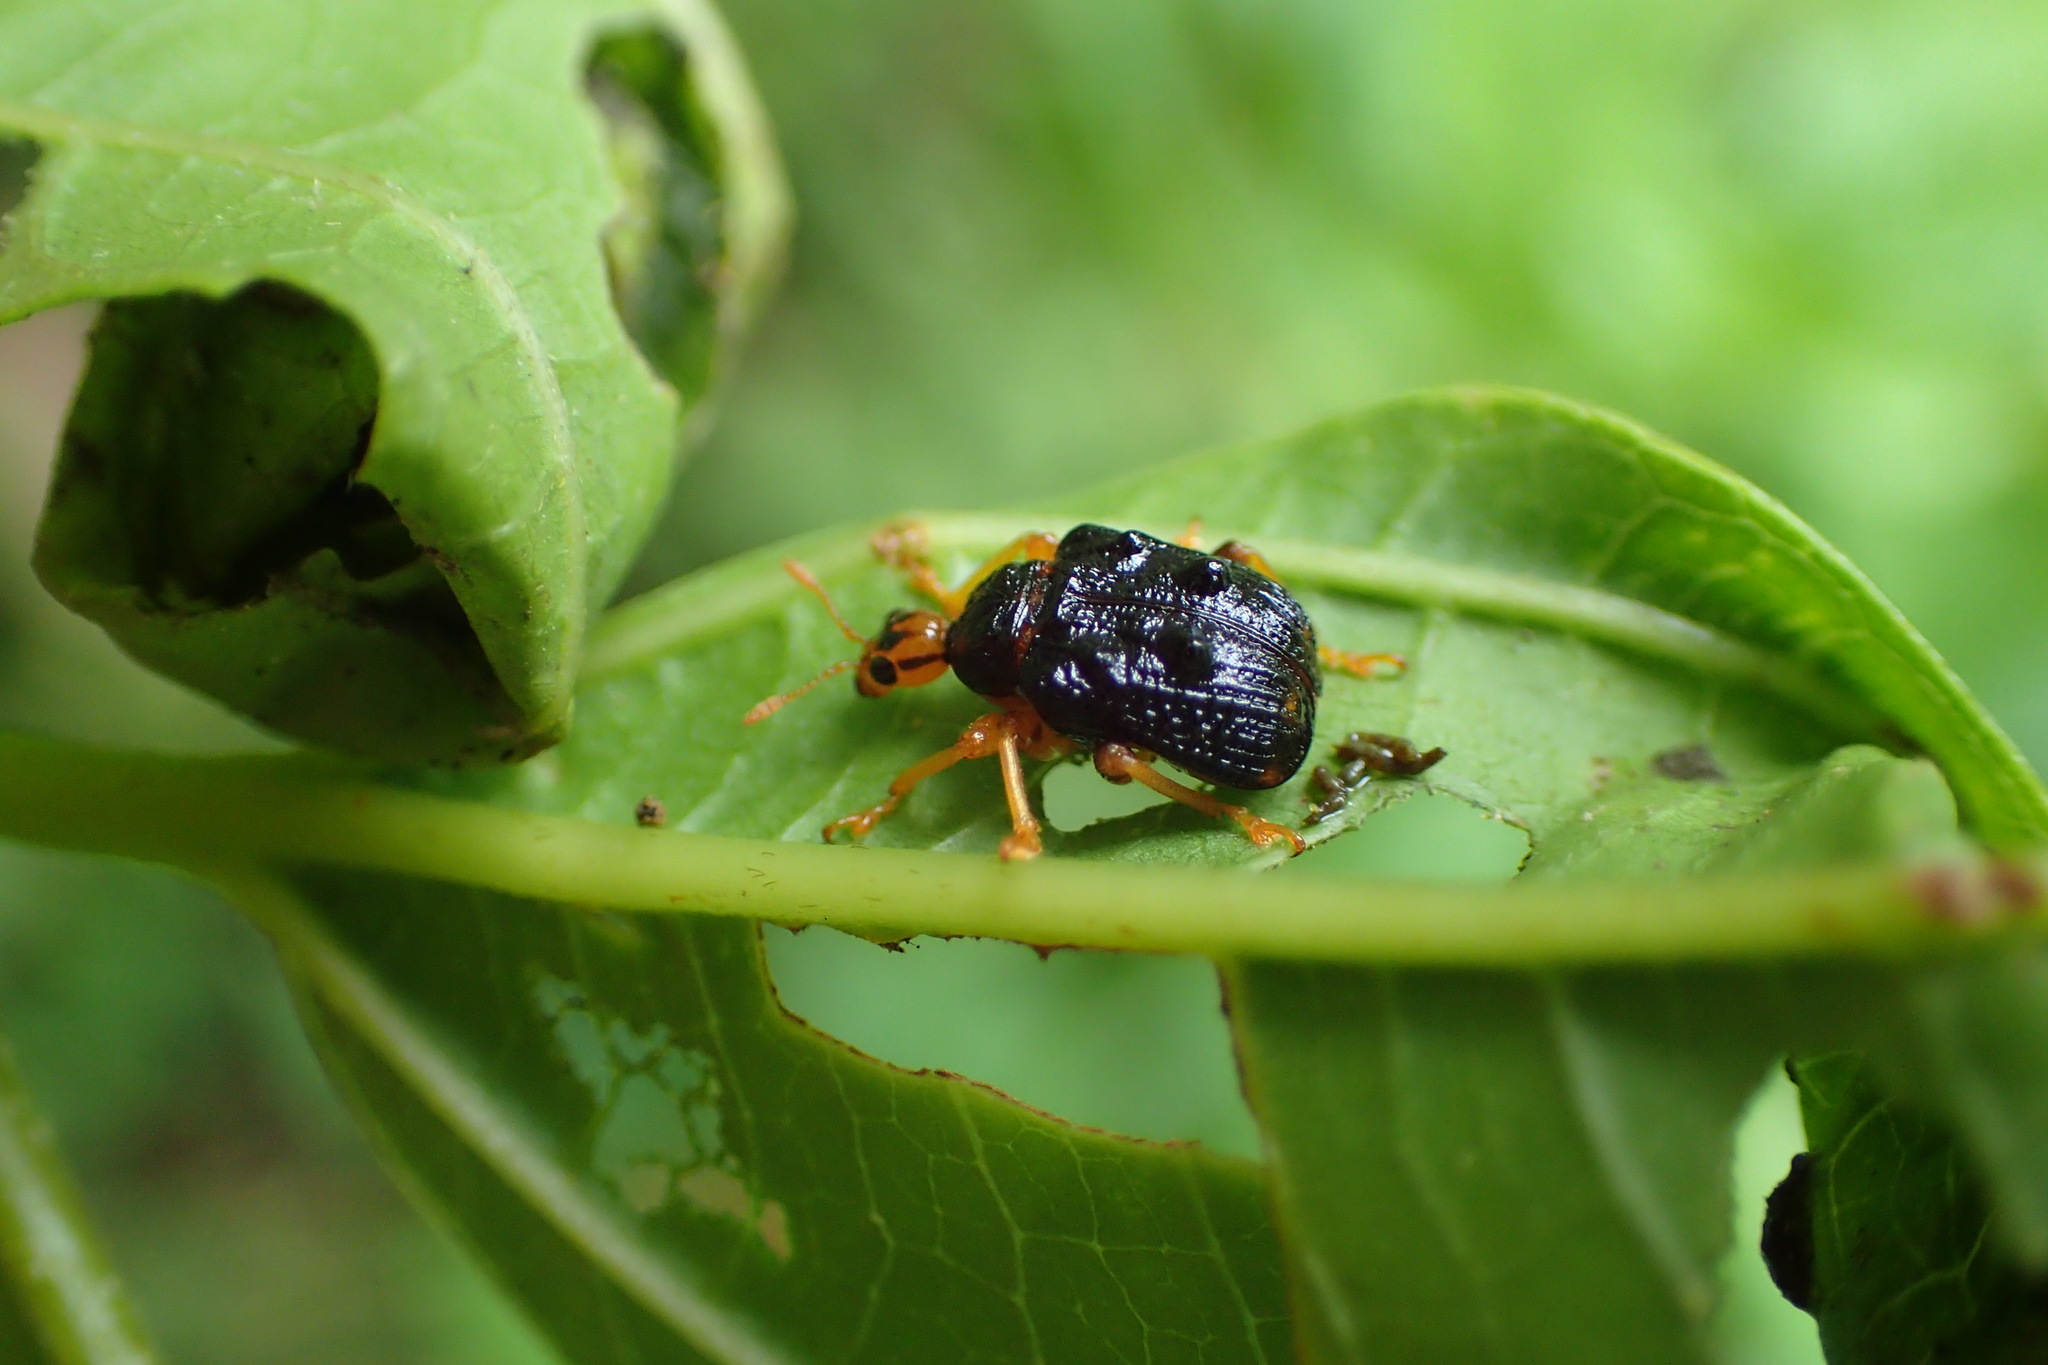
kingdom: Animalia
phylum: Arthropoda
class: Insecta
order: Coleoptera
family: Attelabidae
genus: Paroplapoderus
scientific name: Paroplapoderus tristoides
